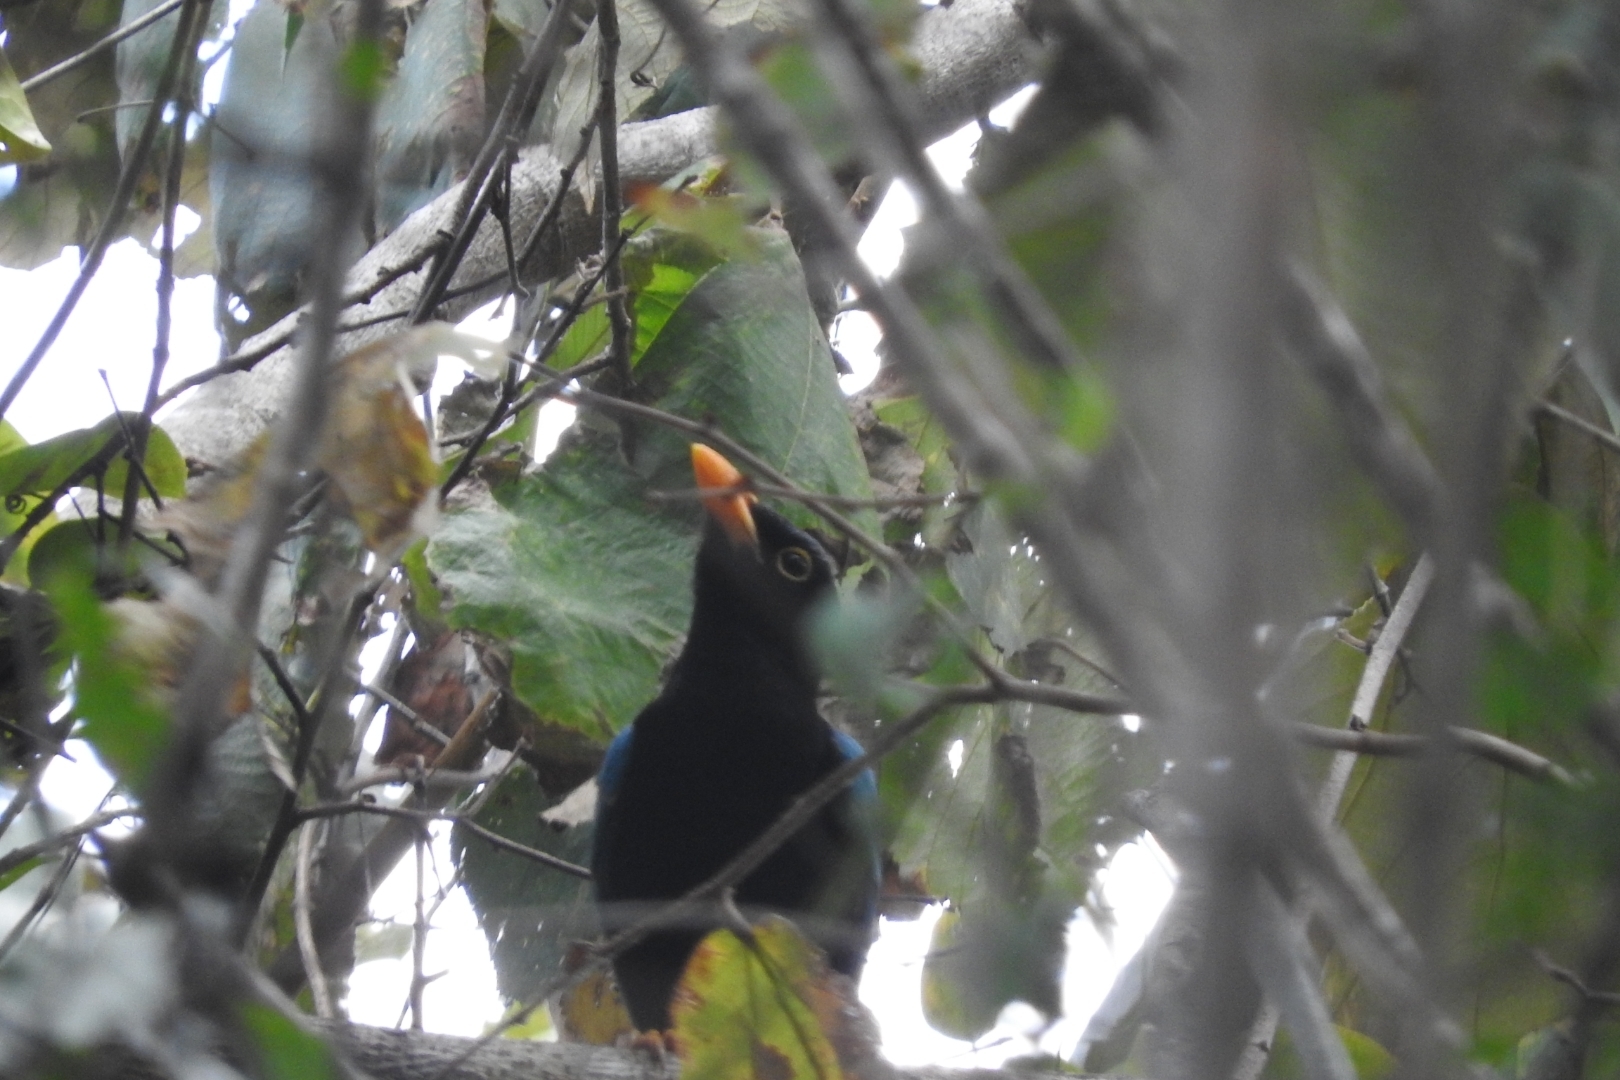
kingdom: Animalia
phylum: Chordata
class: Aves
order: Passeriformes
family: Corvidae
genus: Cyanocorax
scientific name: Cyanocorax yucatanicus
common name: Yucatan jay
